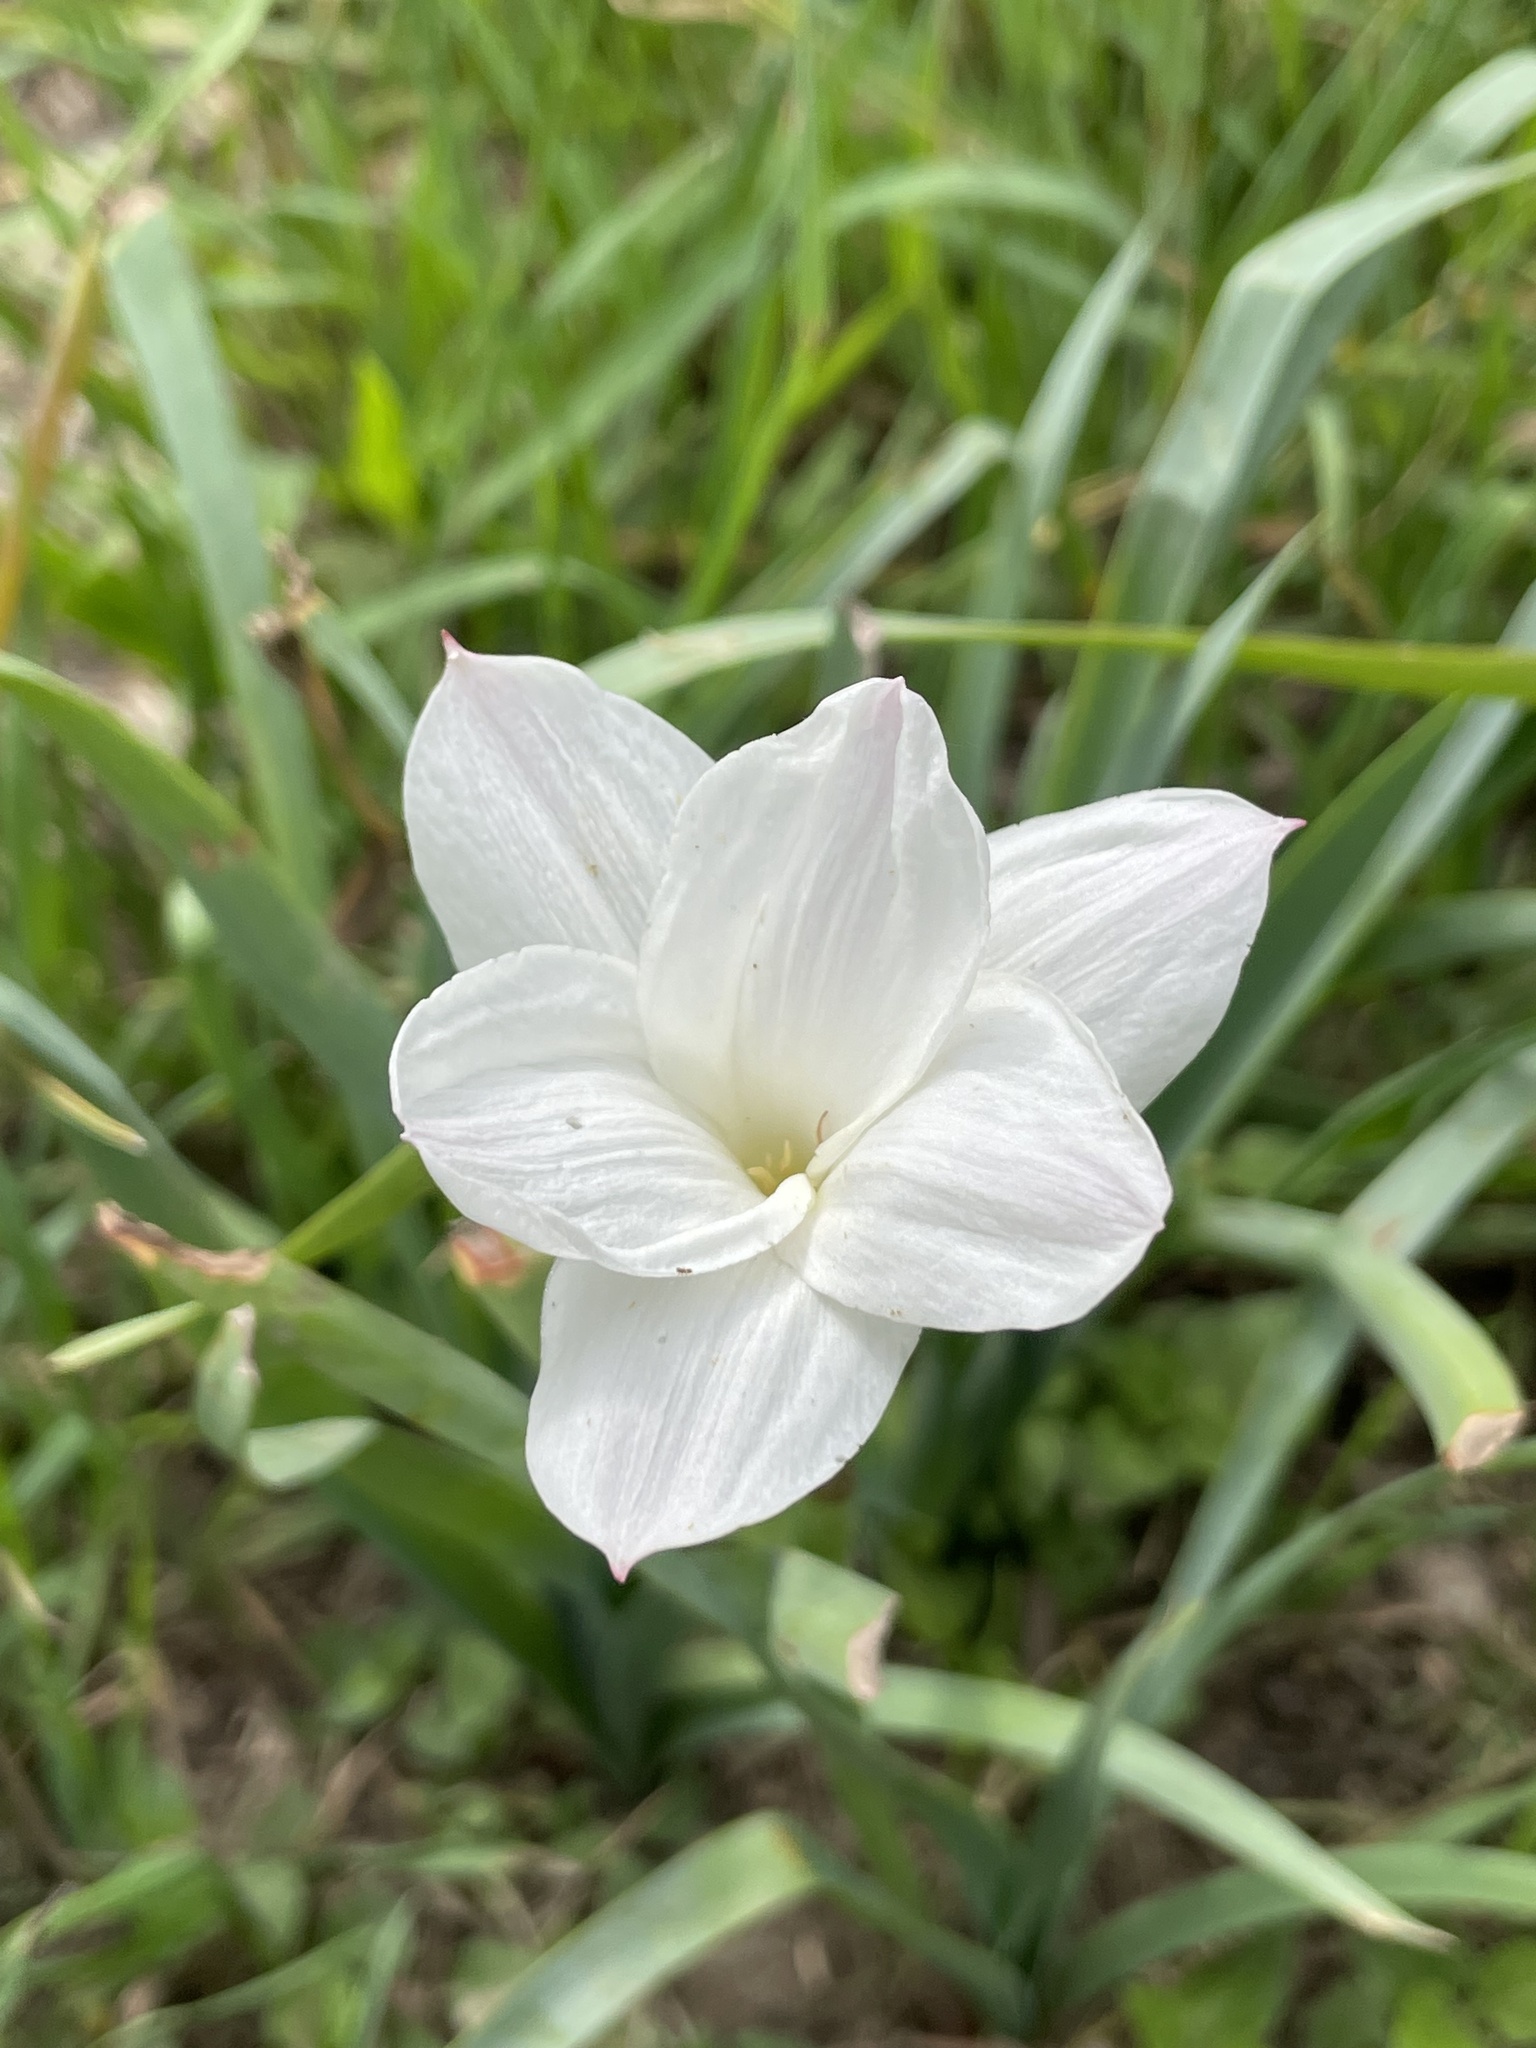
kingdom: Plantae
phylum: Tracheophyta
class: Liliopsida
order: Asparagales
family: Amaryllidaceae
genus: Zephyranthes
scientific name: Zephyranthes drummondii
